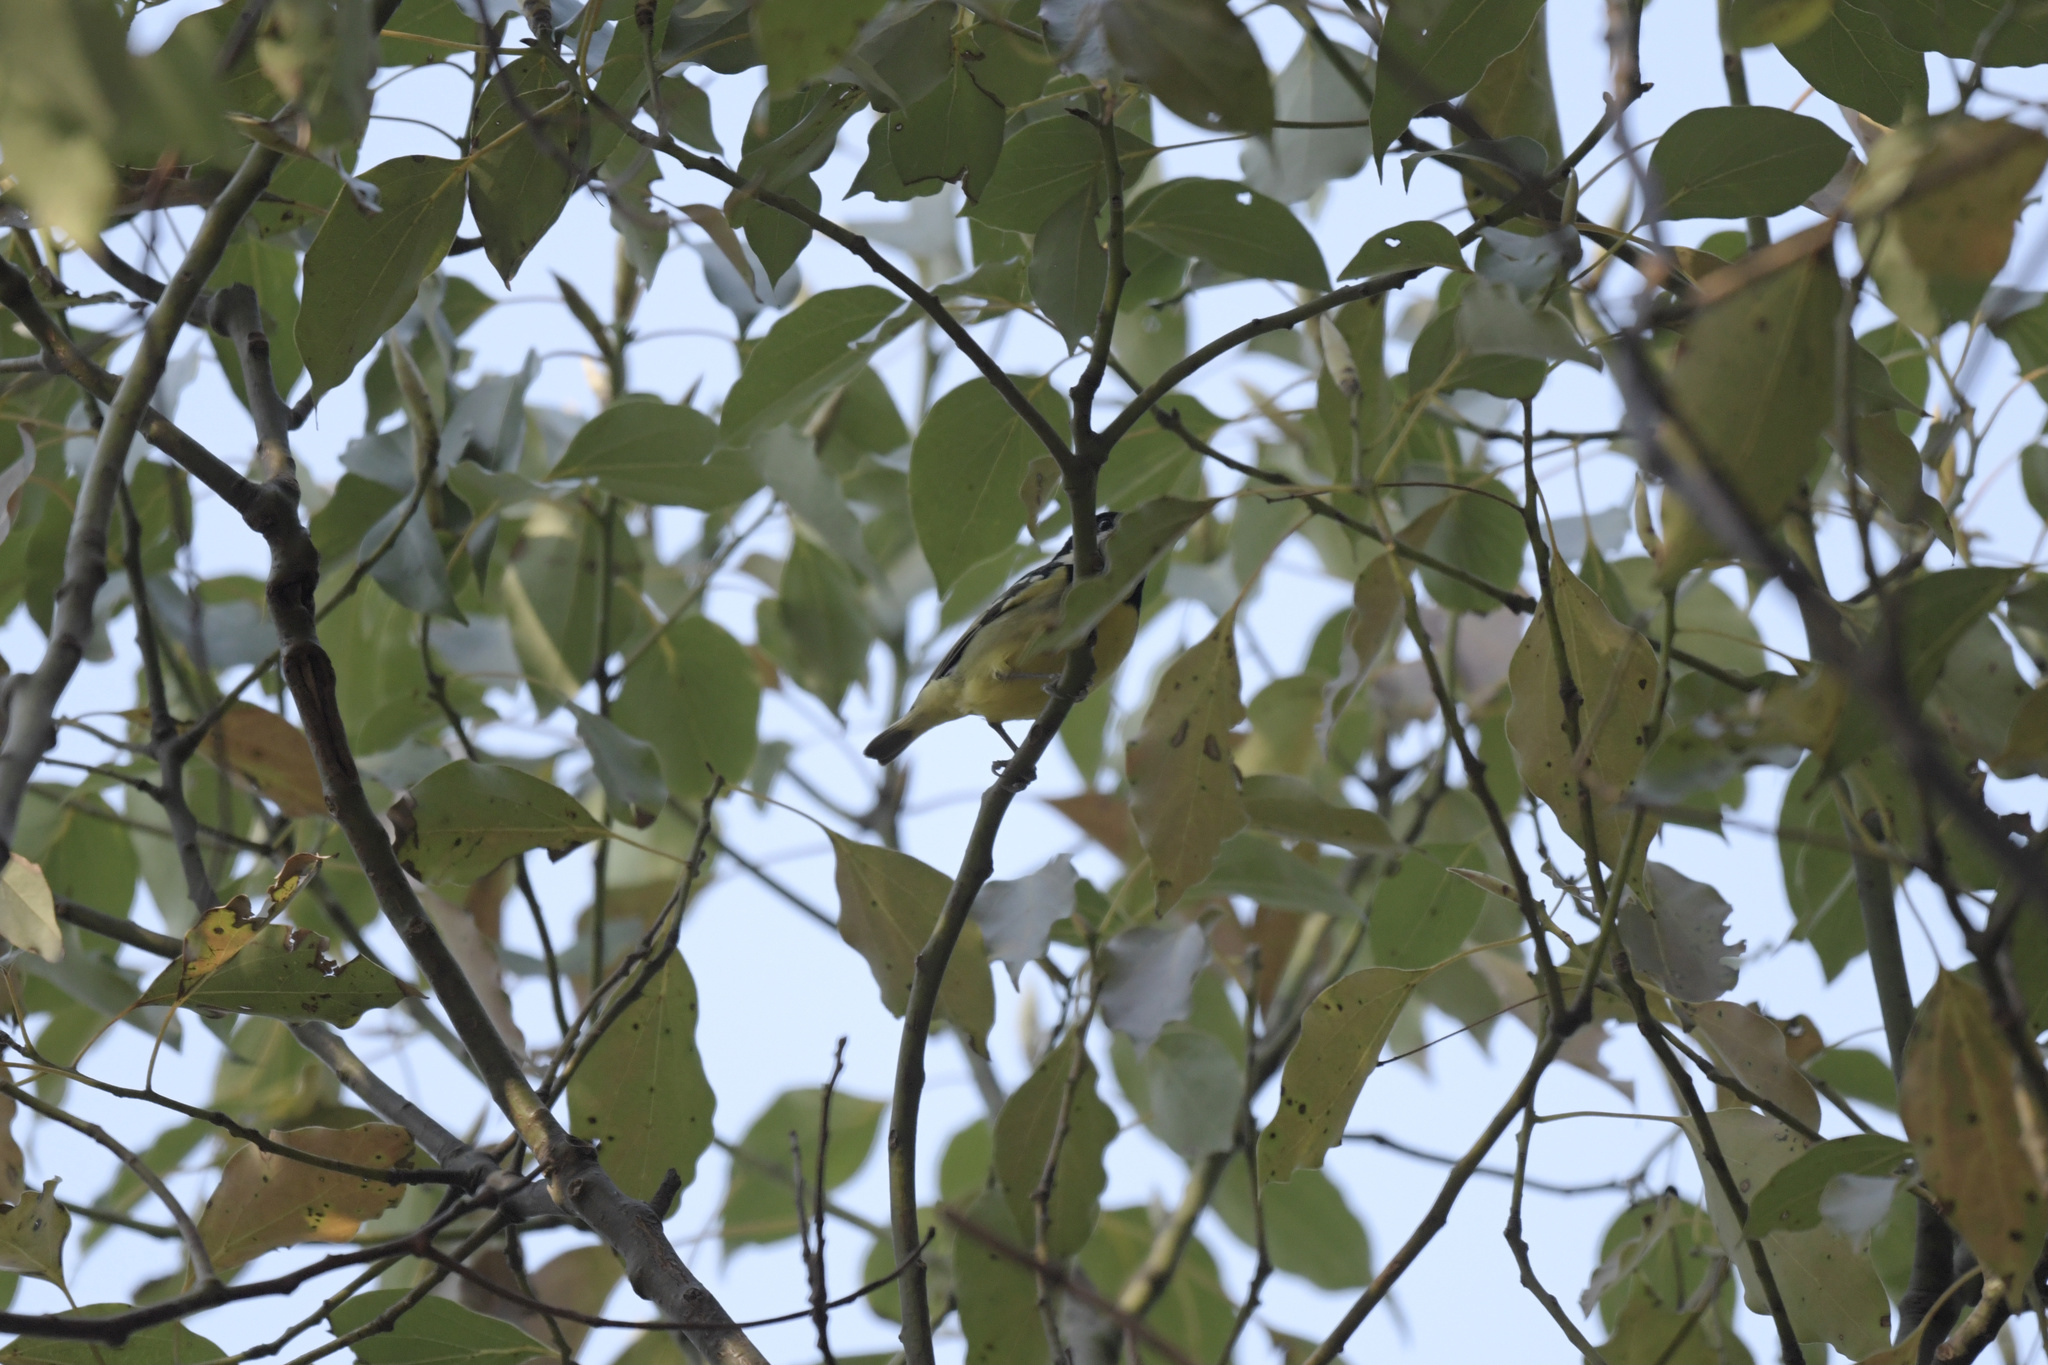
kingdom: Animalia
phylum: Chordata
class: Aves
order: Passeriformes
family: Paridae
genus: Periparus
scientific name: Periparus venustulus
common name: Yellow-bellied tit
